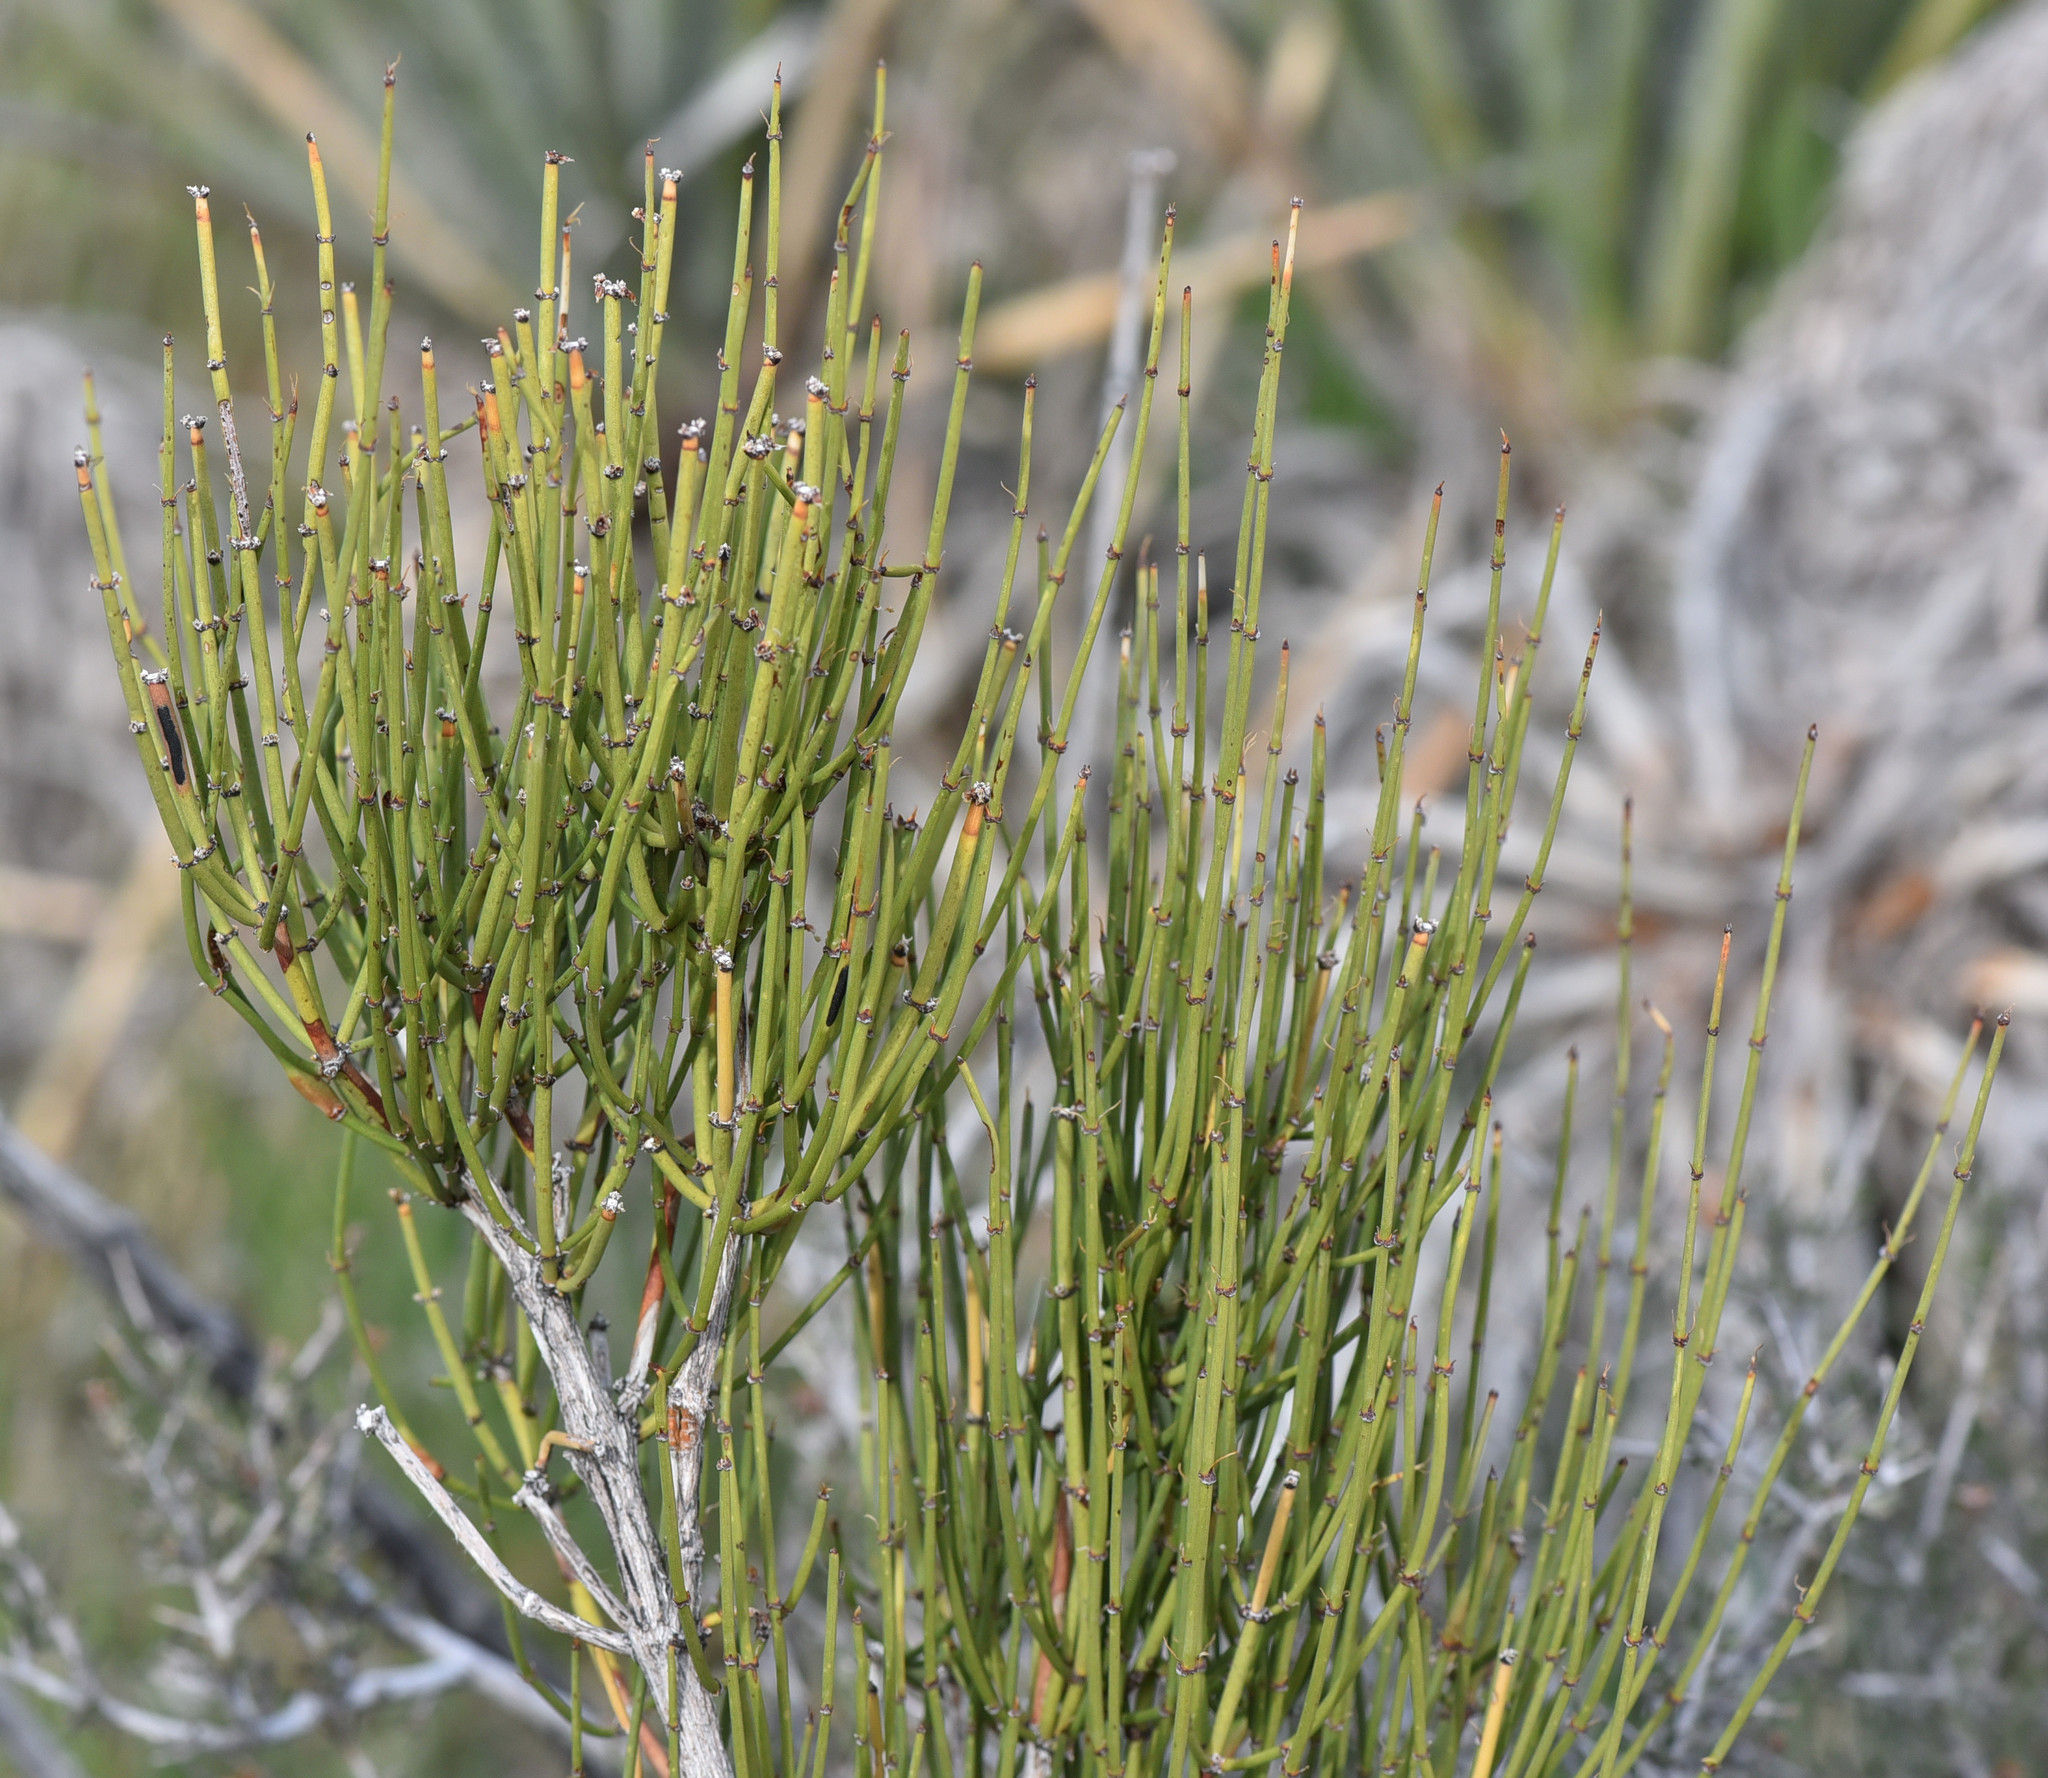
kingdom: Plantae
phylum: Tracheophyta
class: Gnetopsida
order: Ephedrales
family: Ephedraceae
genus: Ephedra
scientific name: Ephedra viridis
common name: Green ephedra
